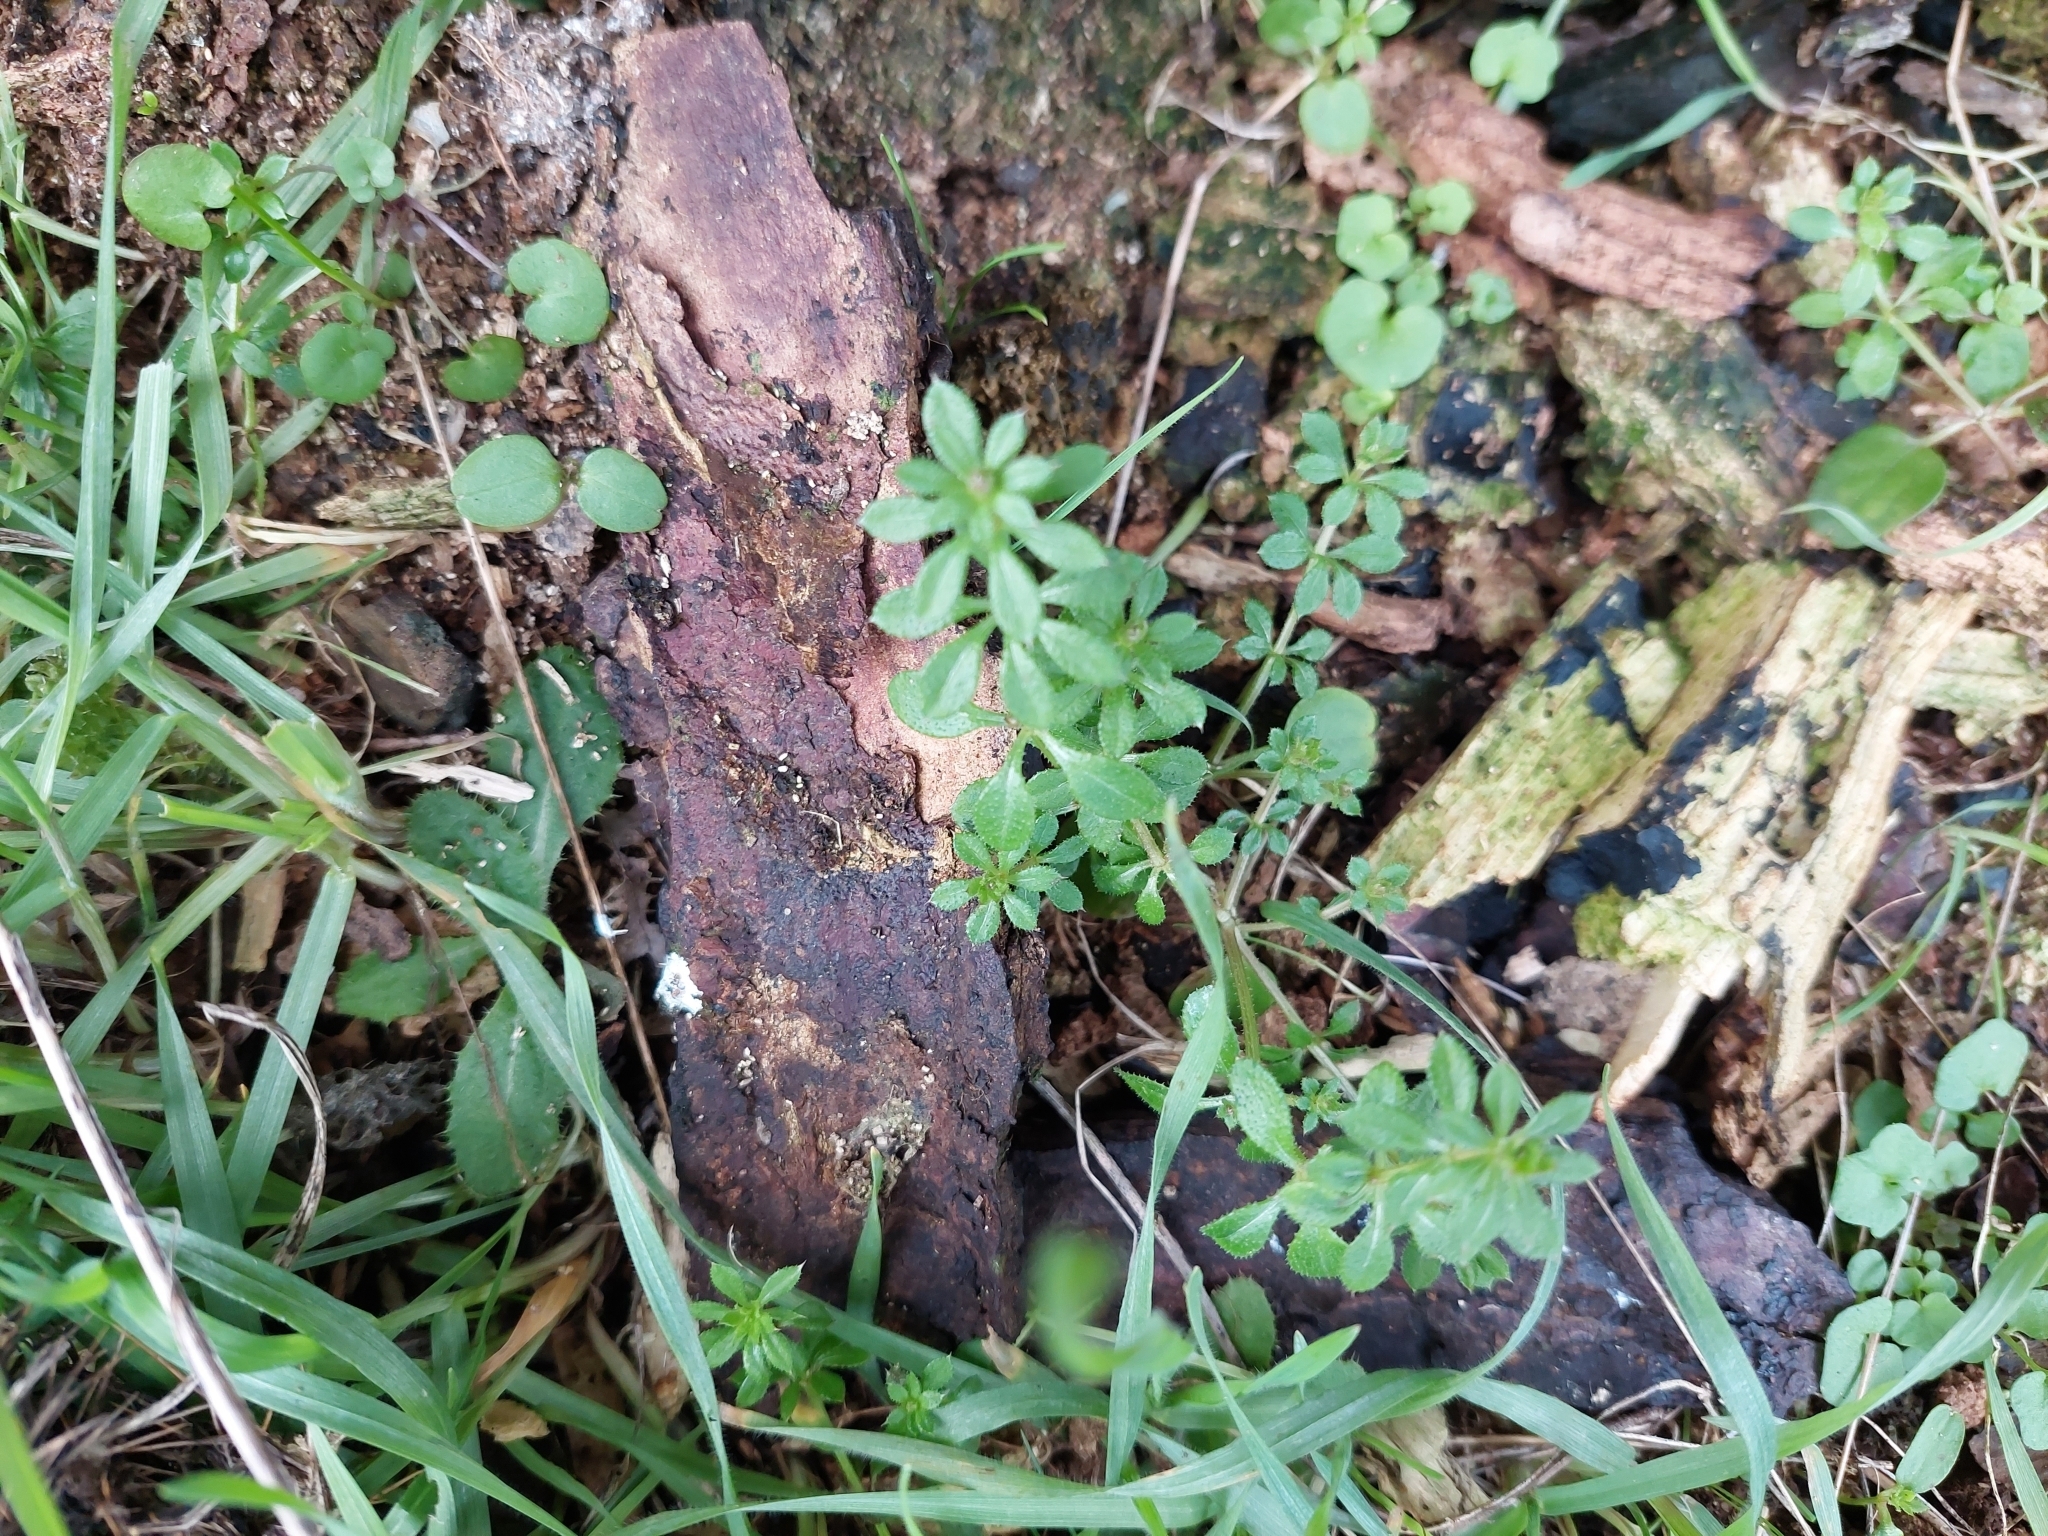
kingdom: Plantae
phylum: Tracheophyta
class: Magnoliopsida
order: Gentianales
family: Rubiaceae
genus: Galium
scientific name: Galium aparine
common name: Cleavers
